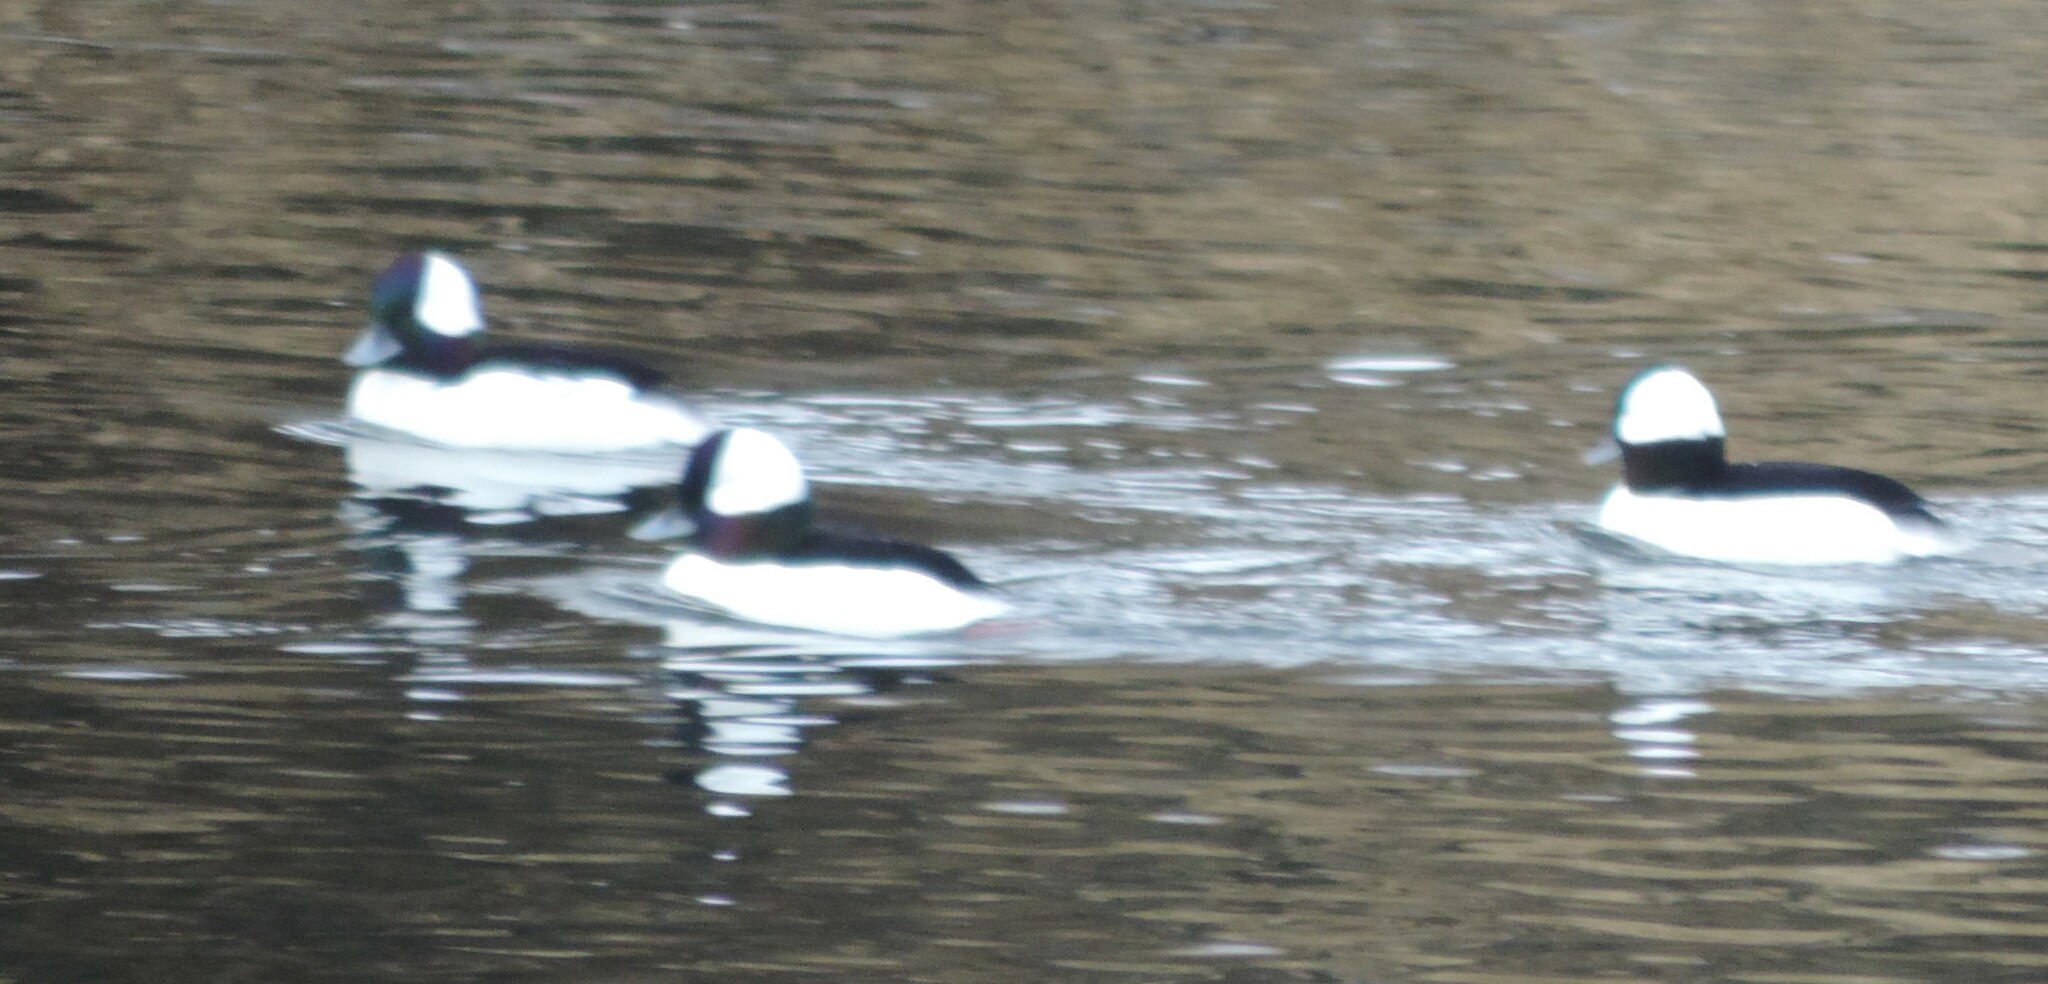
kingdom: Animalia
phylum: Chordata
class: Aves
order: Anseriformes
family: Anatidae
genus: Bucephala
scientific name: Bucephala albeola
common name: Bufflehead
